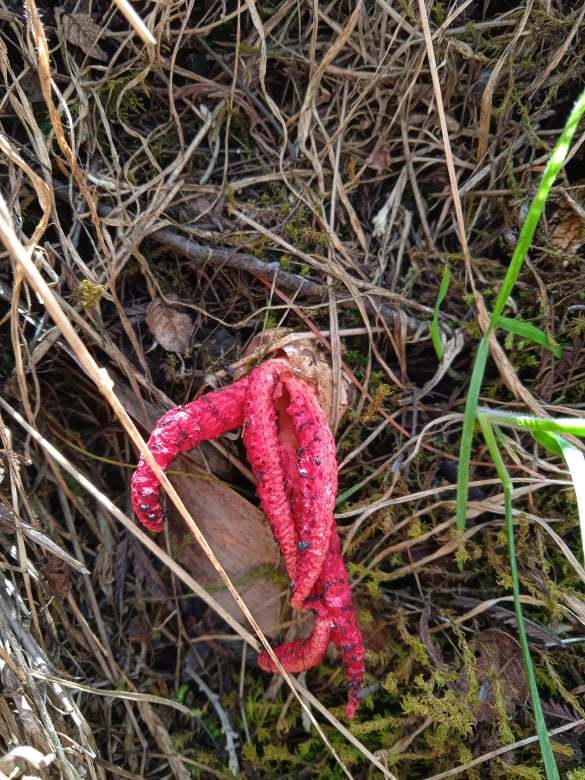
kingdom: Fungi
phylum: Basidiomycota
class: Agaricomycetes
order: Phallales
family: Phallaceae
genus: Clathrus
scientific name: Clathrus archeri
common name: Devil's fingers
